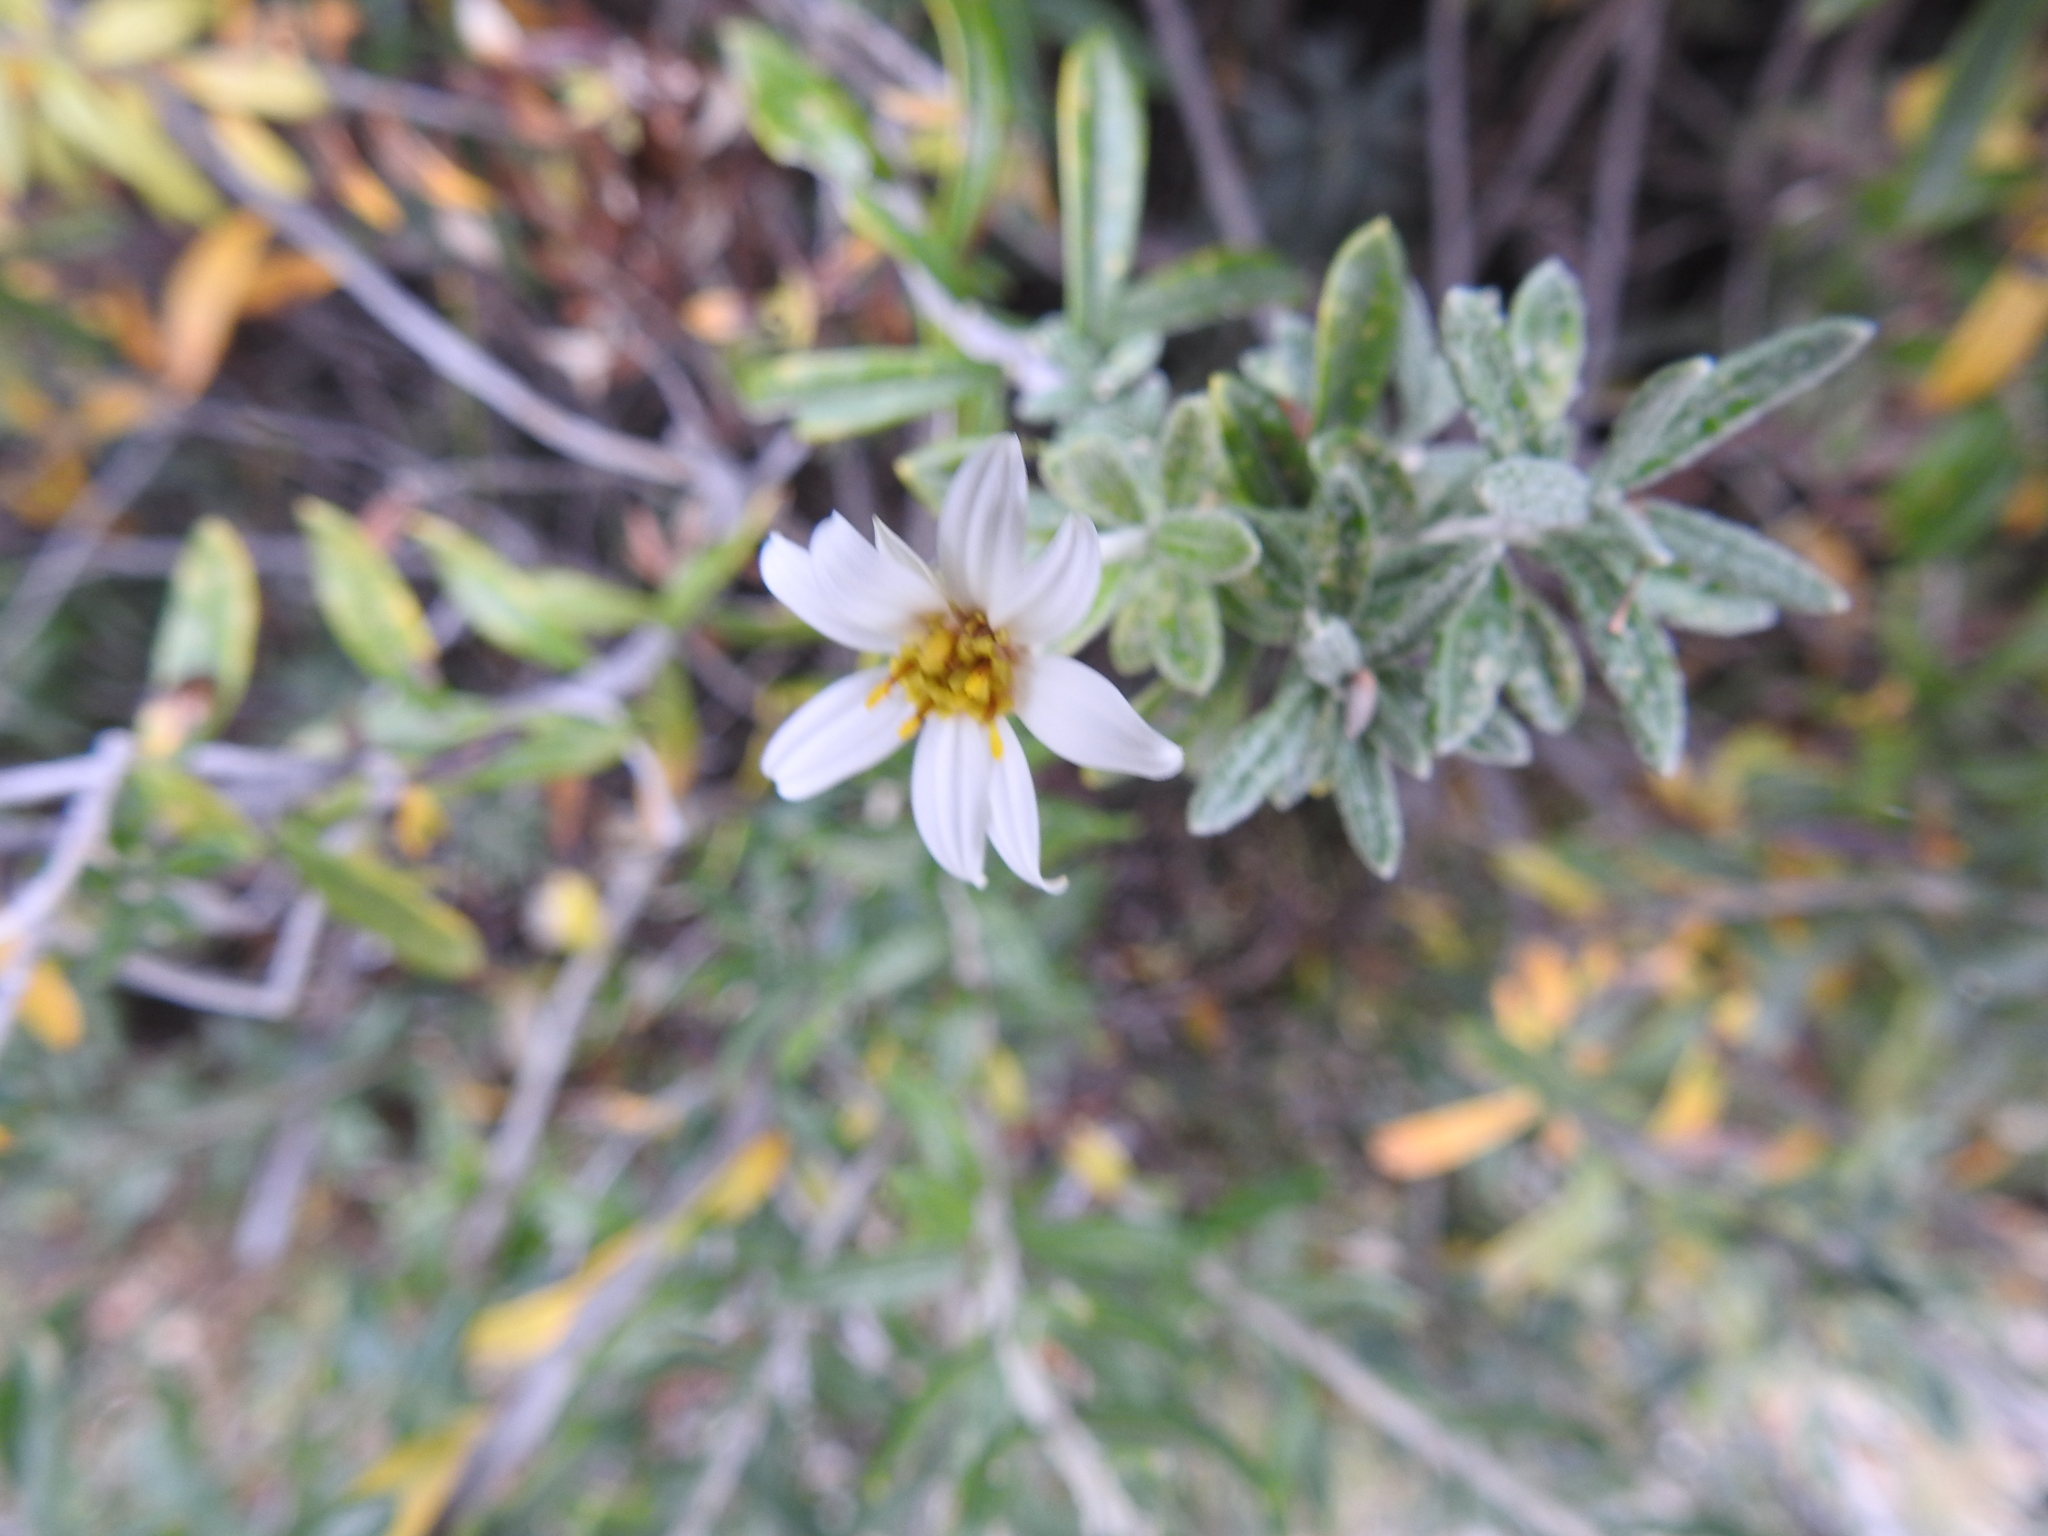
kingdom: Plantae
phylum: Tracheophyta
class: Magnoliopsida
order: Asterales
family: Asteraceae
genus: Chiliotrichum
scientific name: Chiliotrichum diffusum
